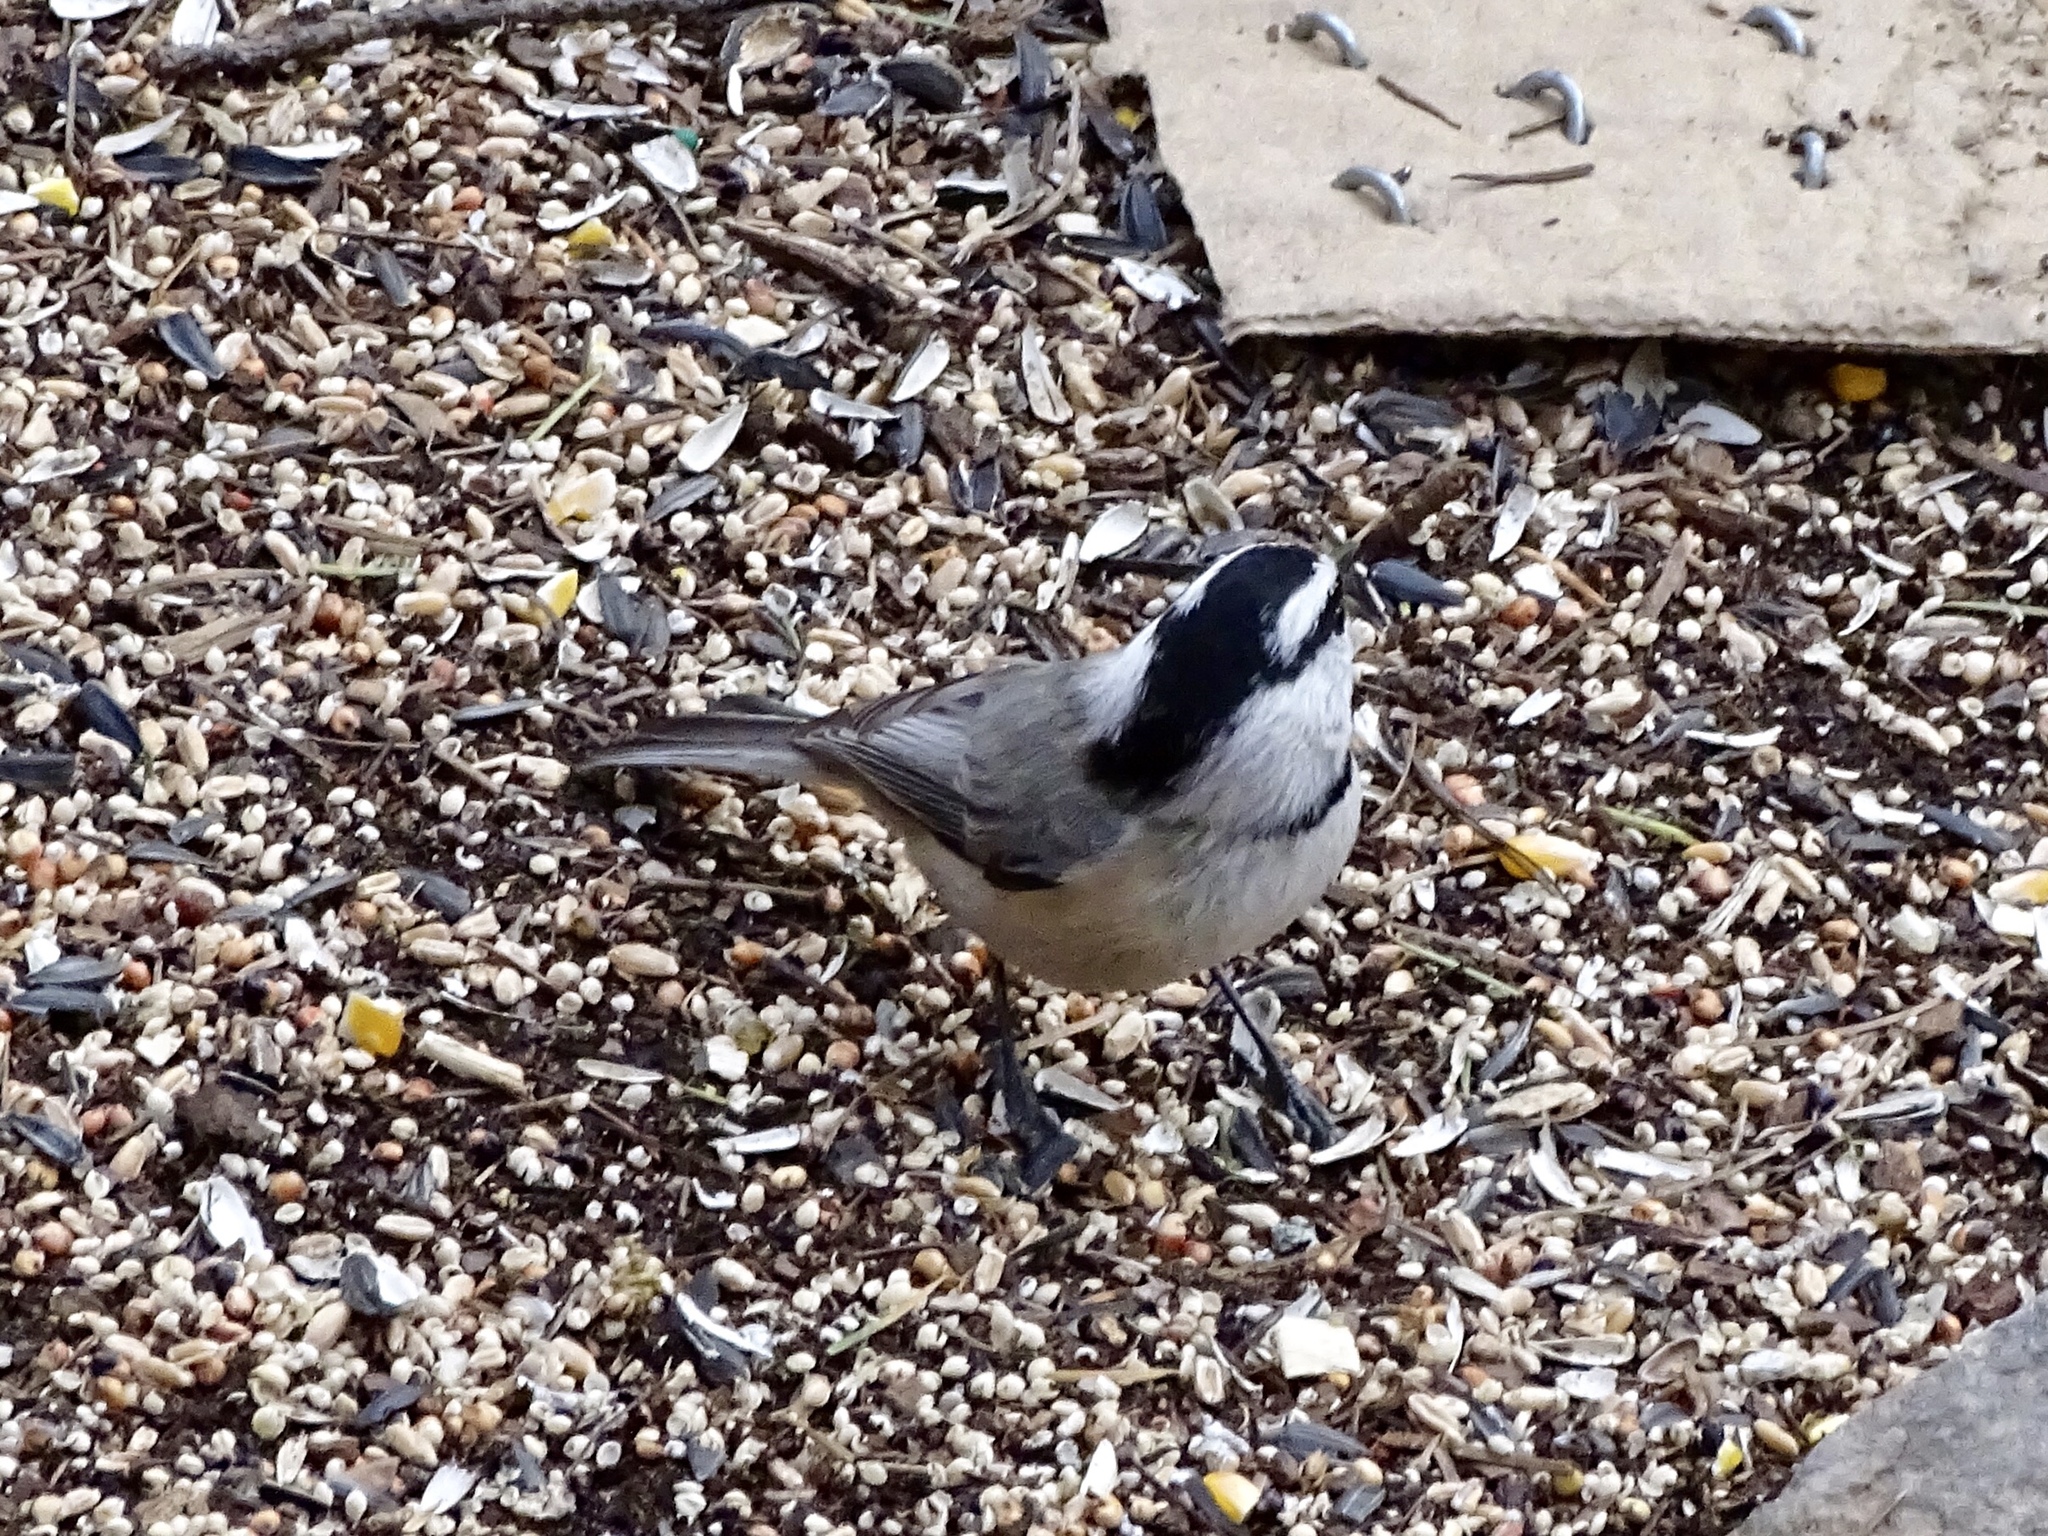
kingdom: Animalia
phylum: Chordata
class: Aves
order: Passeriformes
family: Paridae
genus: Poecile
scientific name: Poecile gambeli
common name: Mountain chickadee
